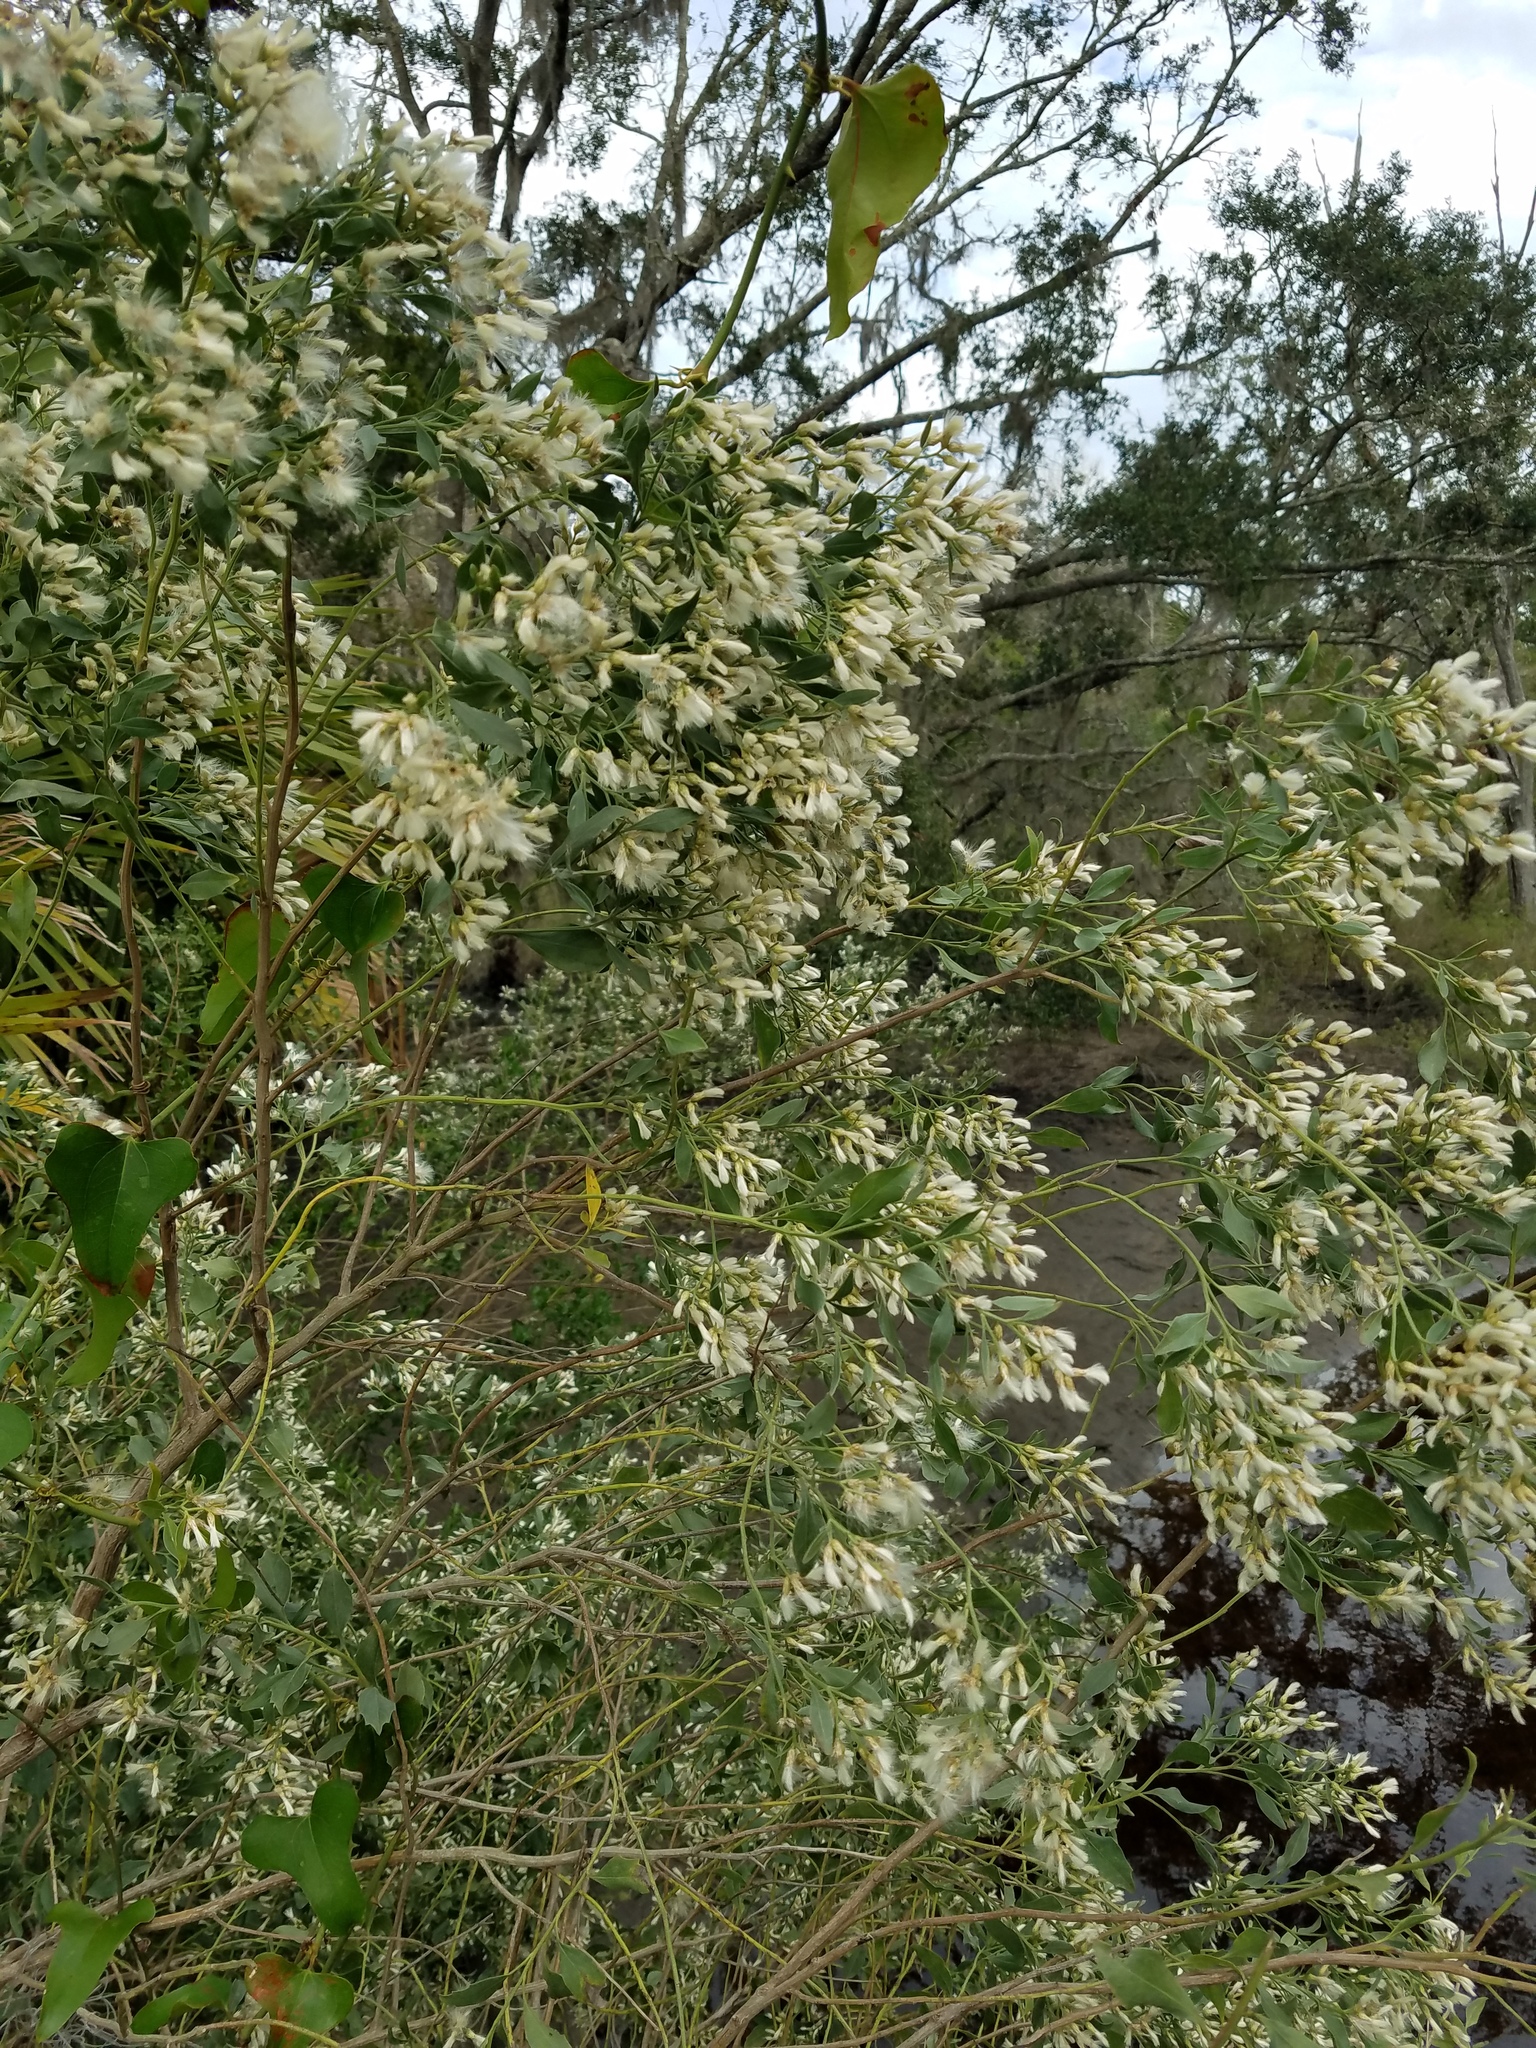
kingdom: Plantae
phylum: Tracheophyta
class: Magnoliopsida
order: Asterales
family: Asteraceae
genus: Baccharis
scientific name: Baccharis halimifolia
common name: Eastern baccharis
